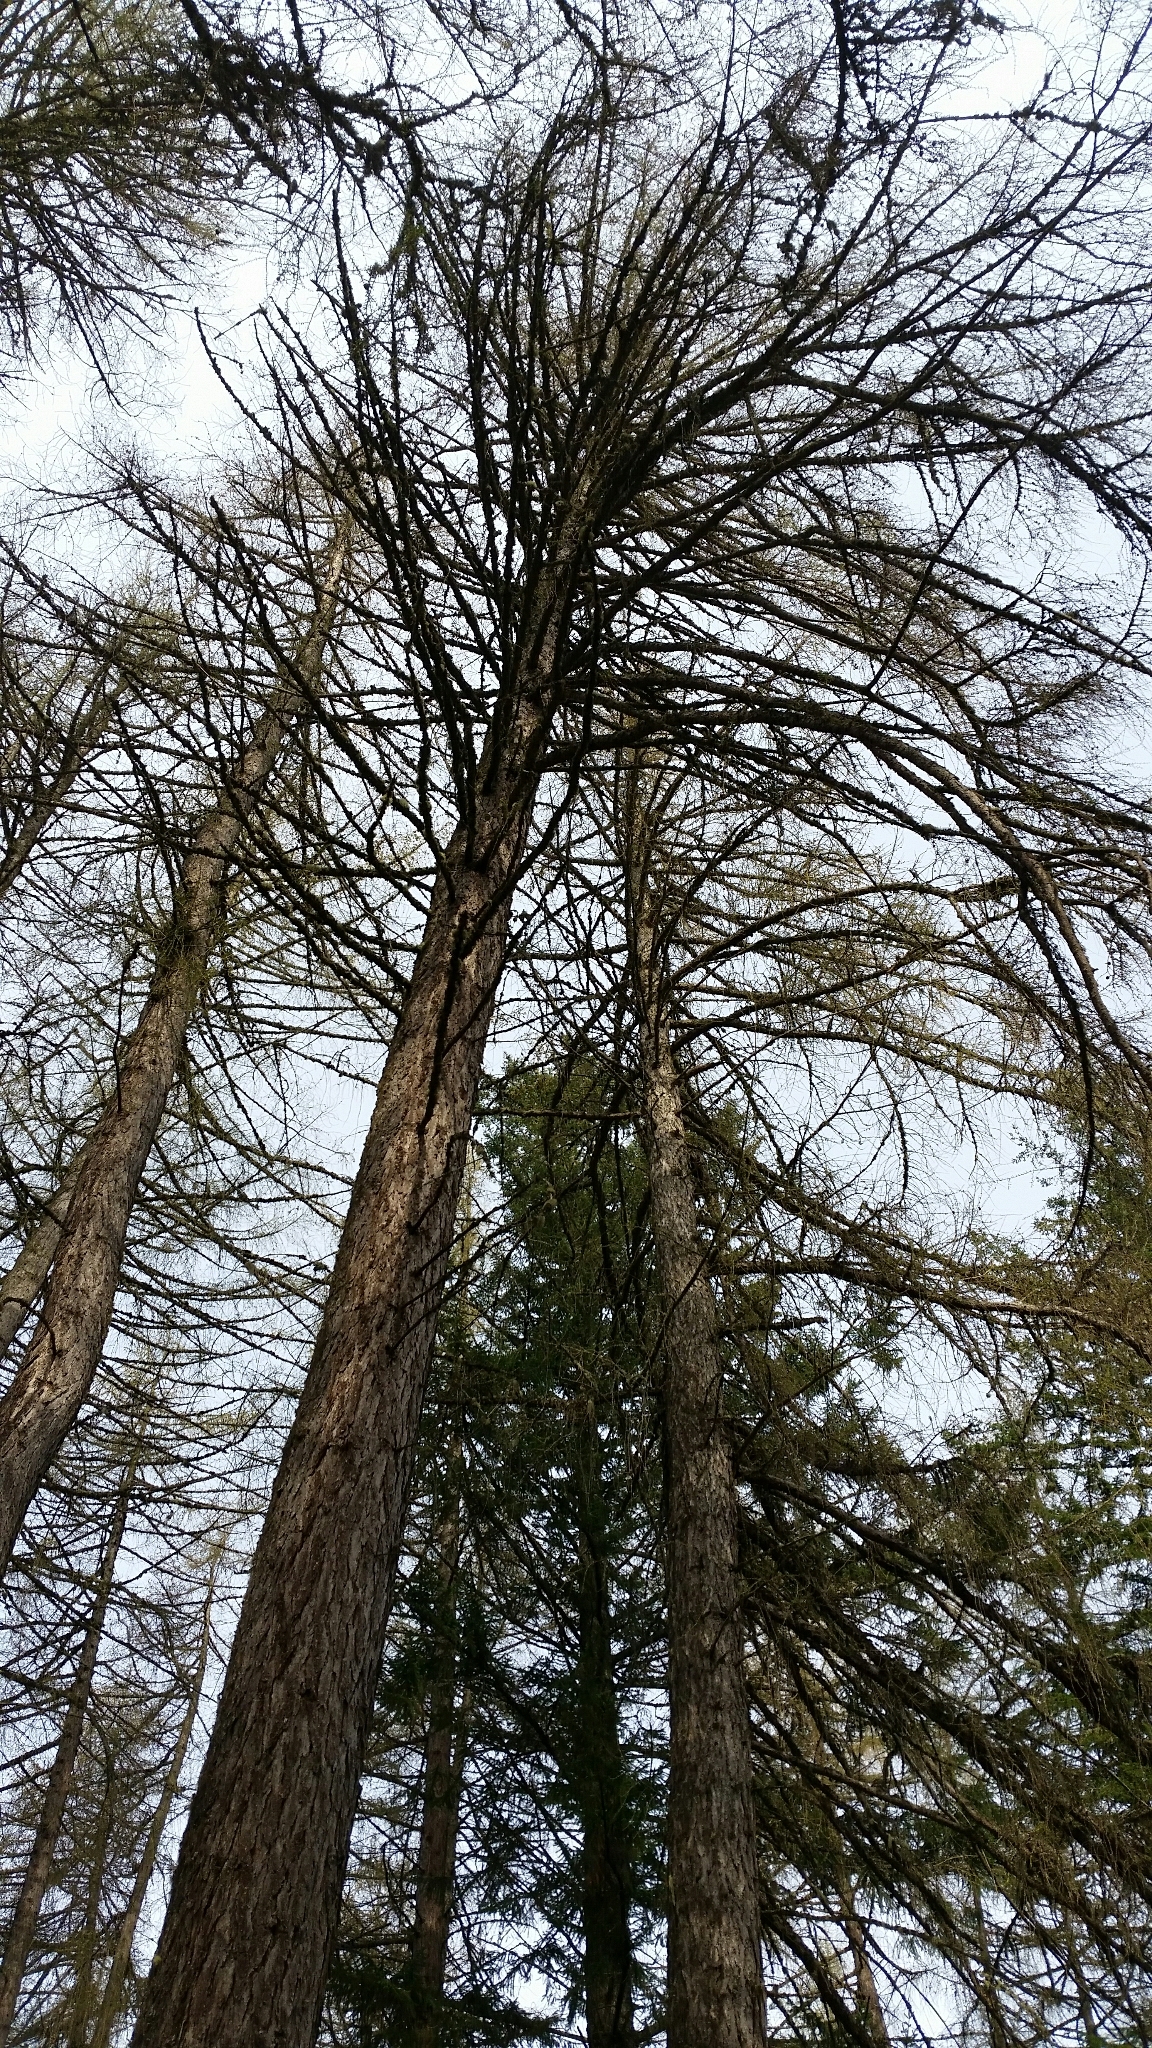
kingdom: Plantae
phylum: Tracheophyta
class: Pinopsida
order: Pinales
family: Pinaceae
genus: Larix
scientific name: Larix decidua
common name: European larch
